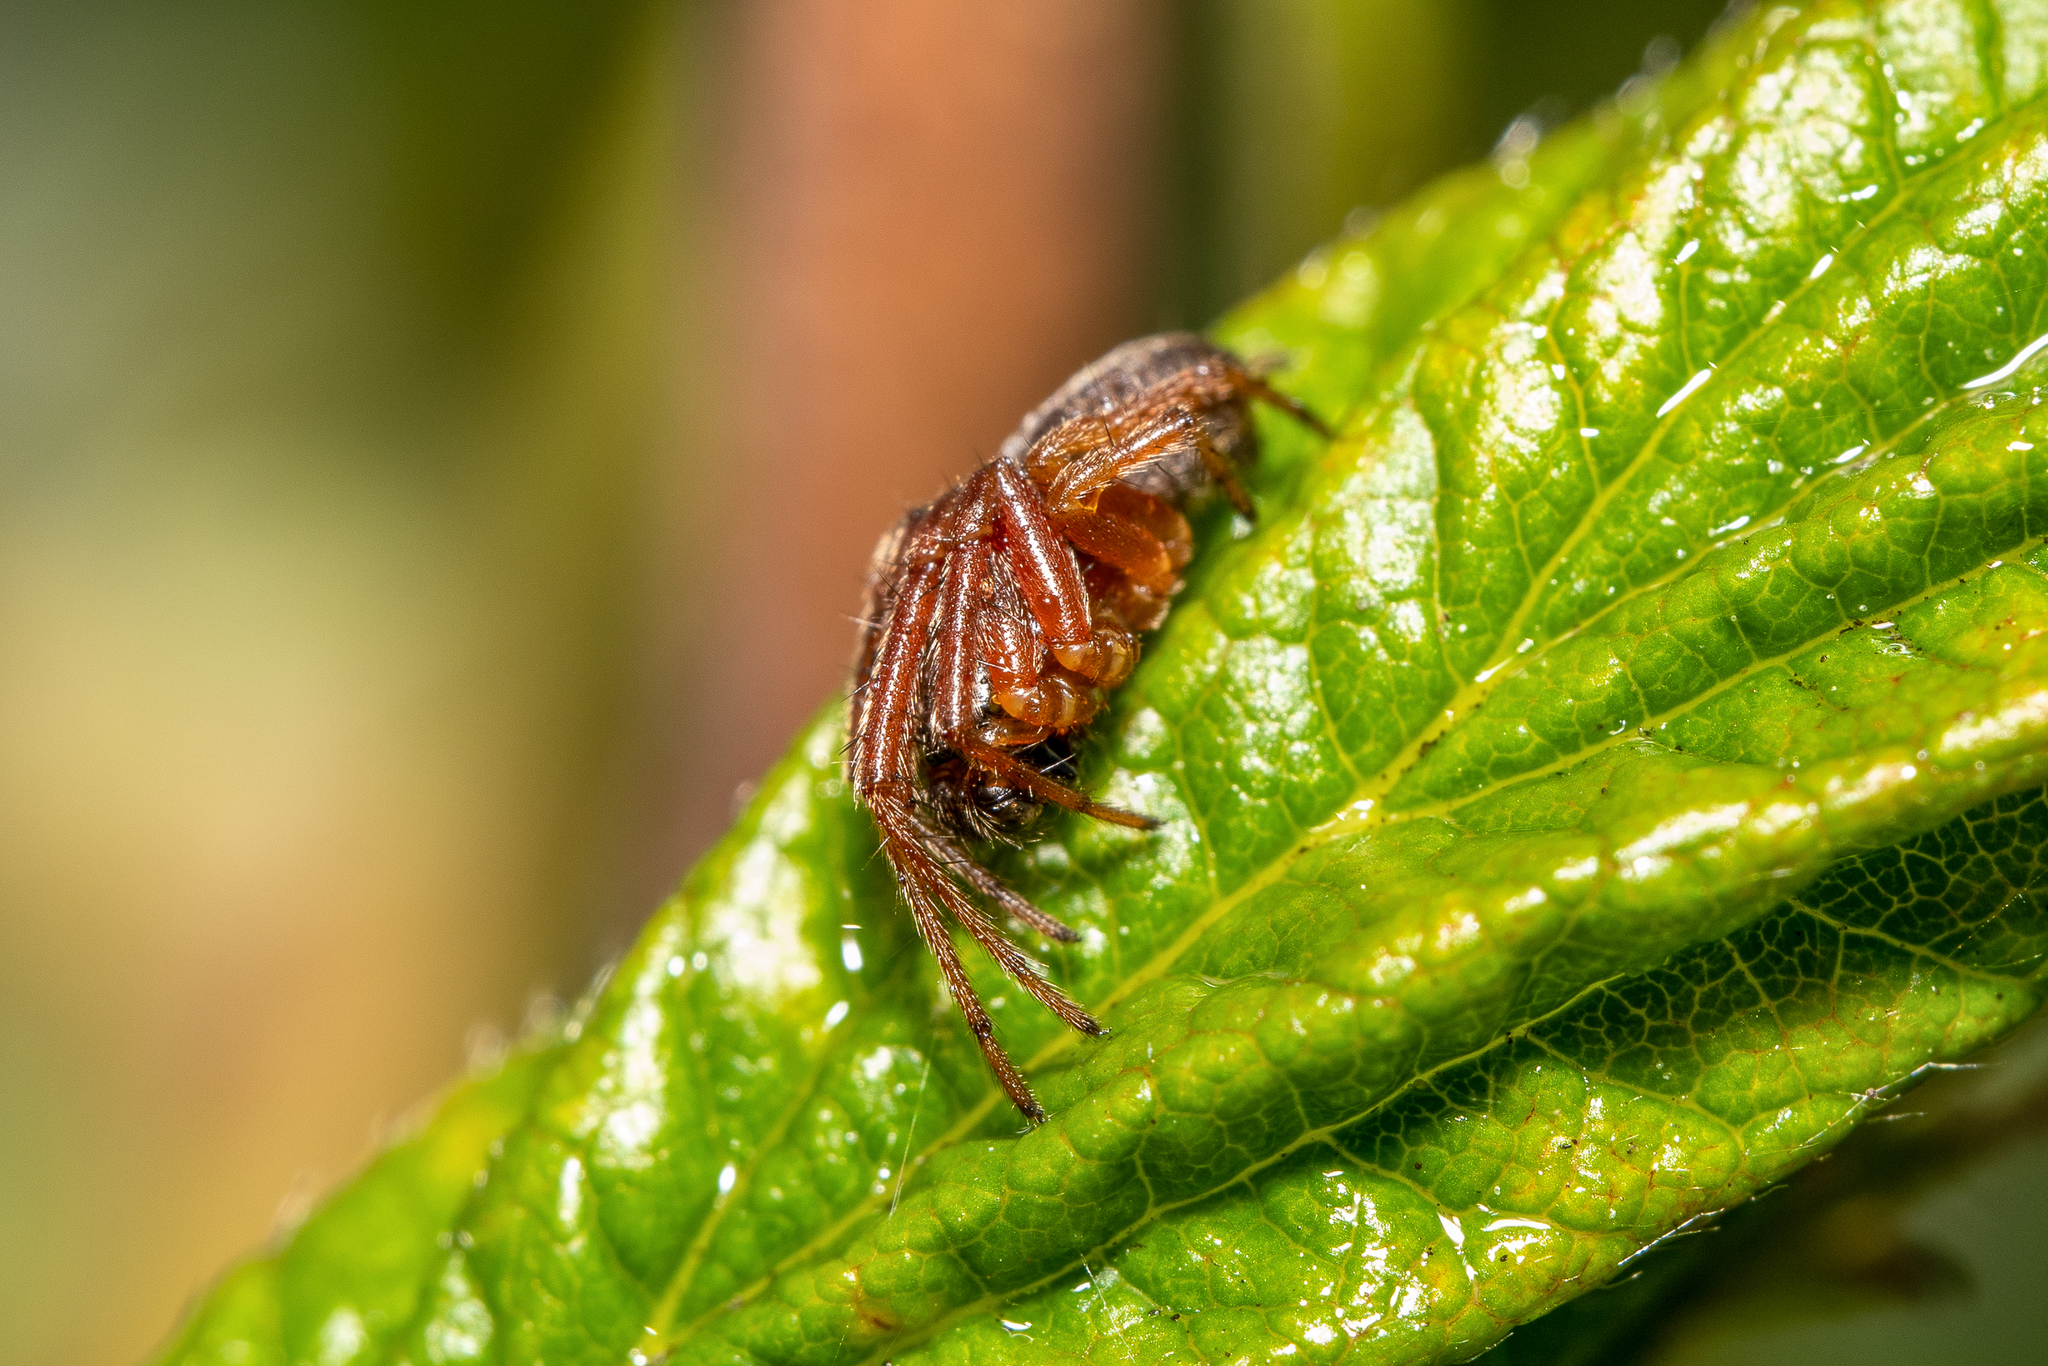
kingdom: Animalia
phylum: Arthropoda
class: Arachnida
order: Araneae
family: Araneidae
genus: Singa
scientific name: Singa nitidula
